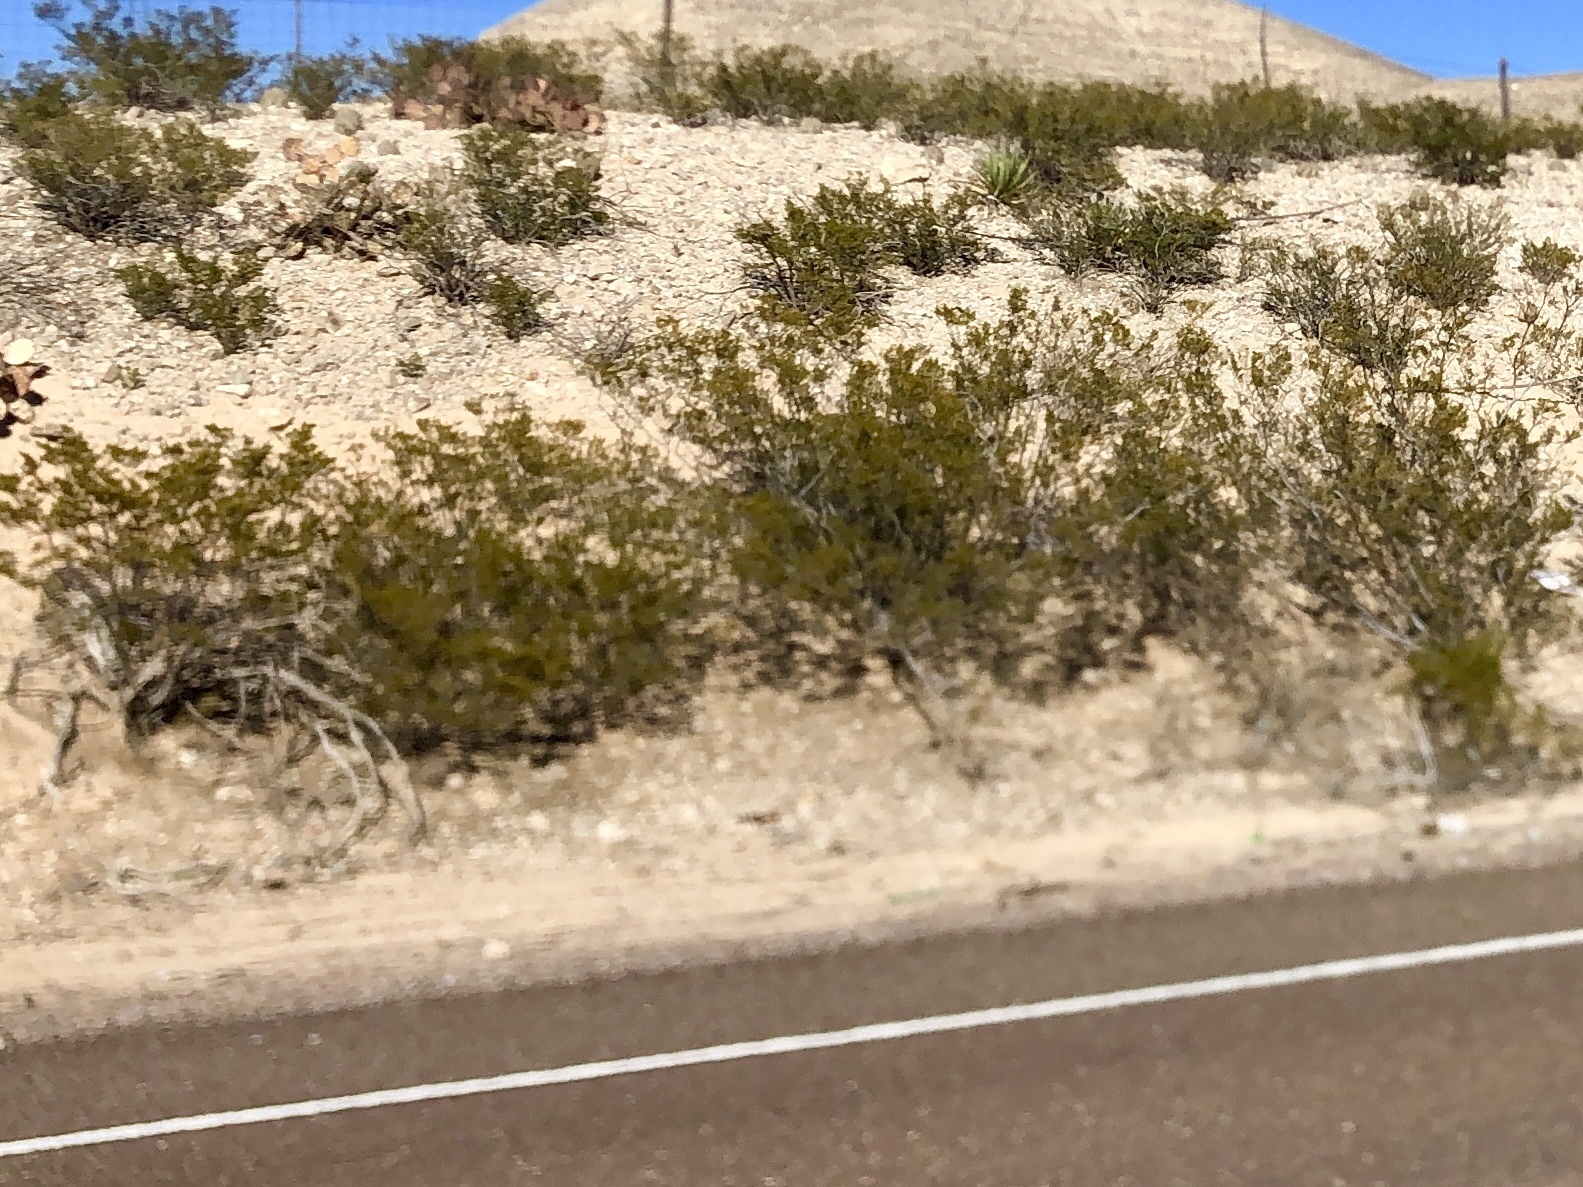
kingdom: Plantae
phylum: Tracheophyta
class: Magnoliopsida
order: Zygophyllales
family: Zygophyllaceae
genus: Larrea
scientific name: Larrea tridentata
